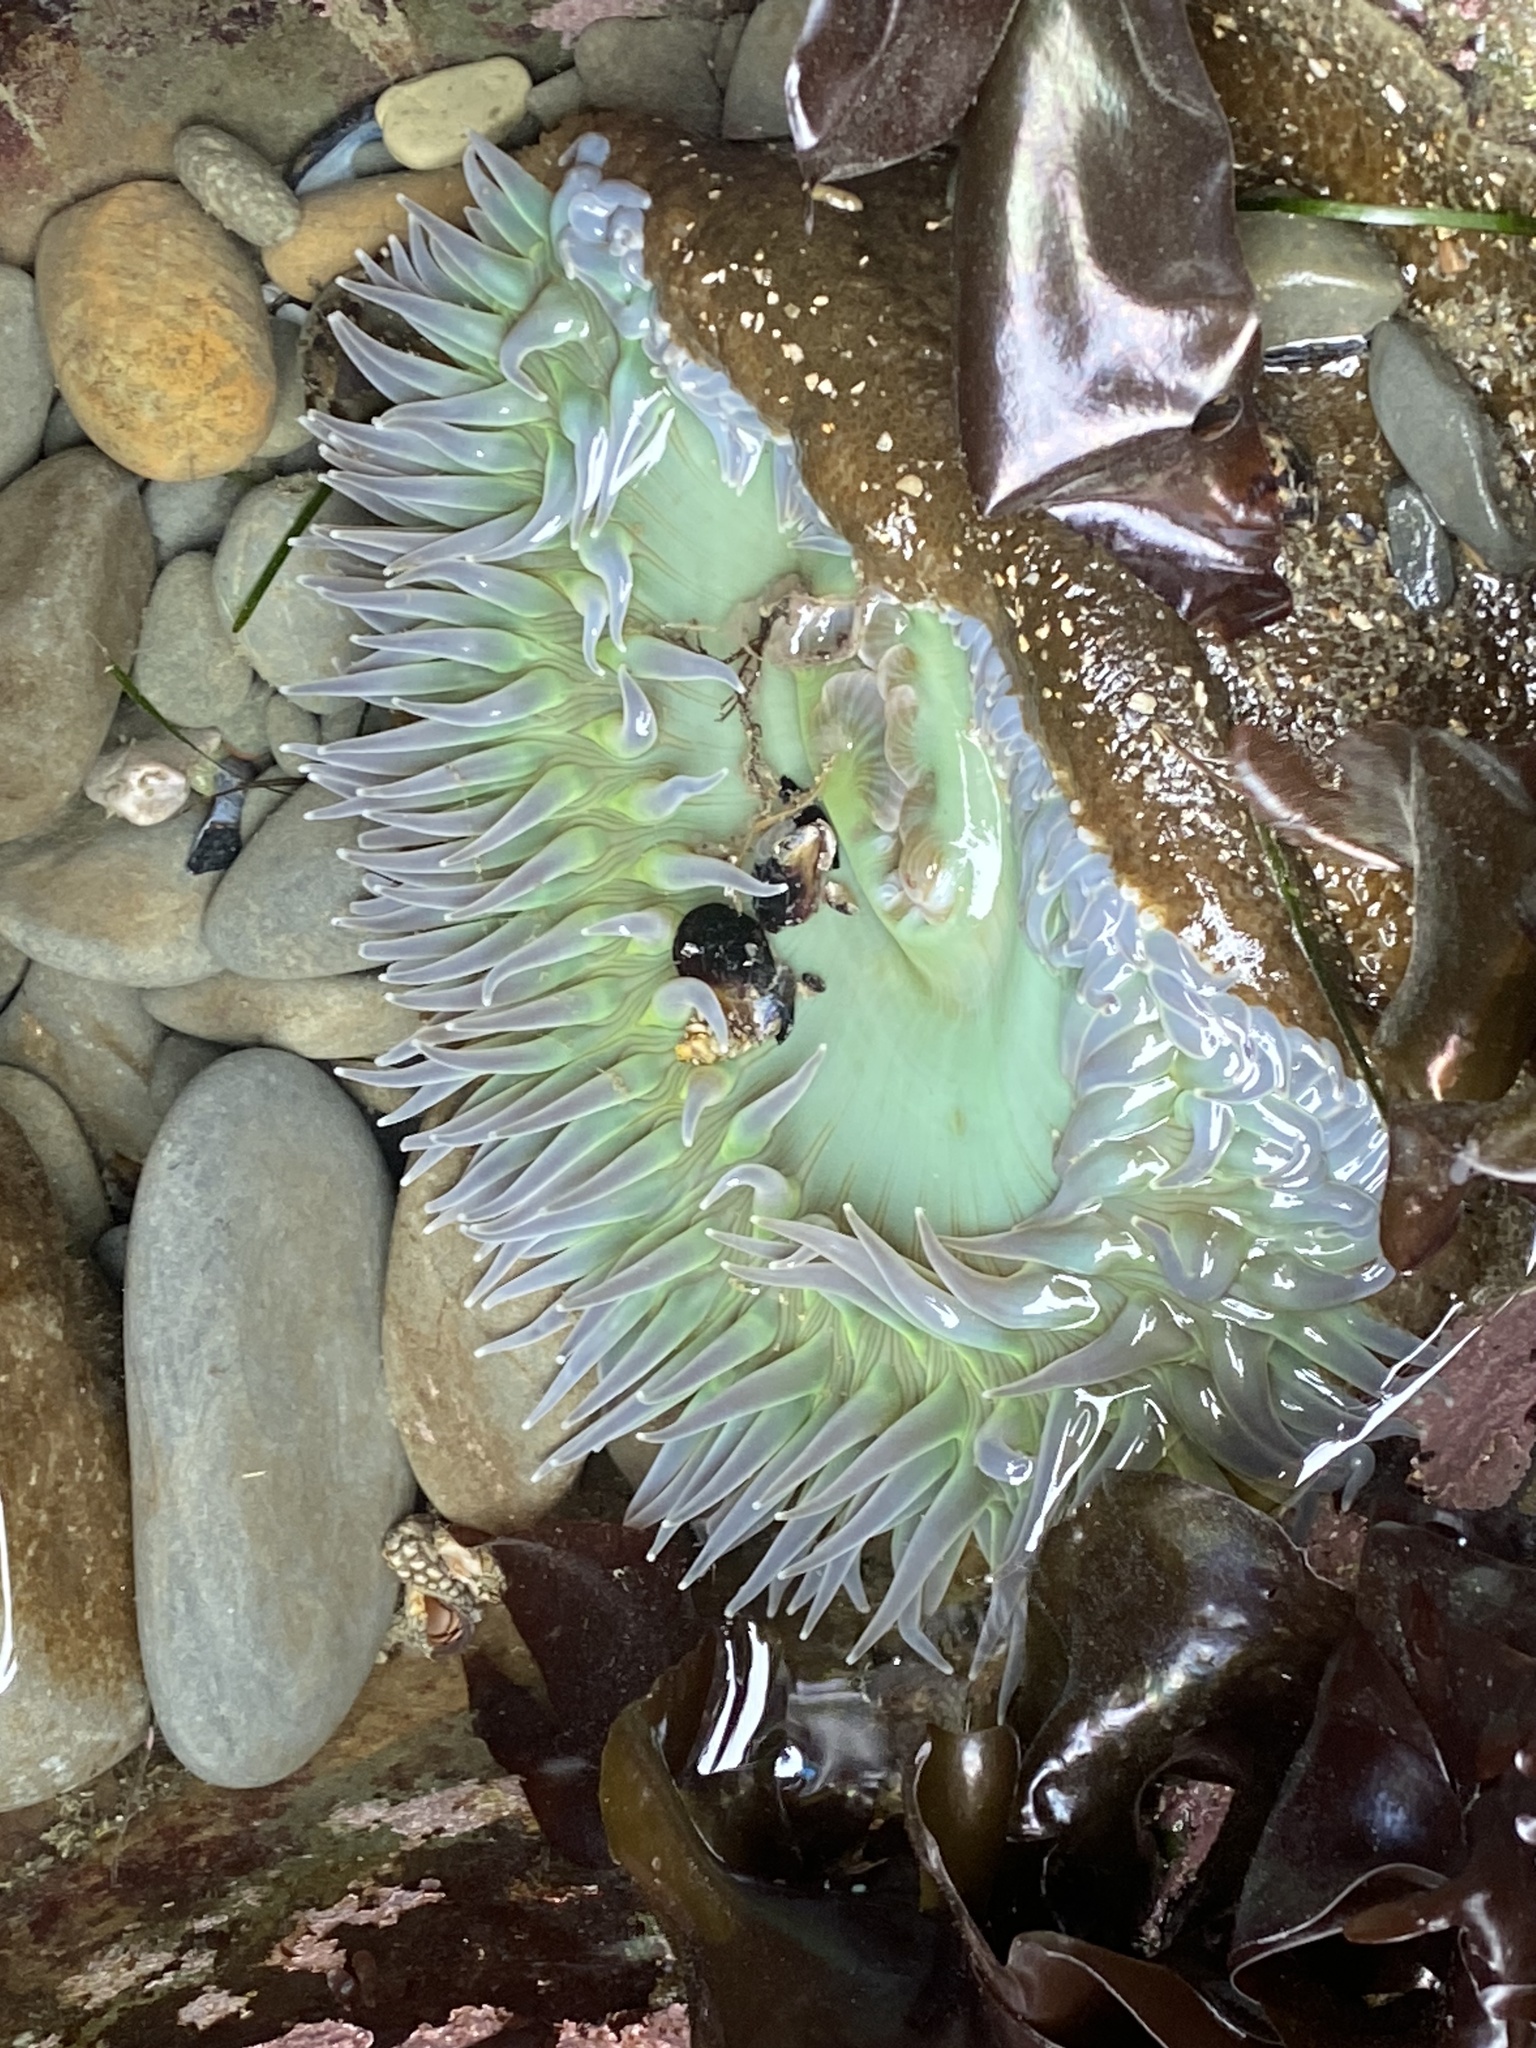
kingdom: Animalia
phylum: Cnidaria
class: Anthozoa
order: Actiniaria
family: Actiniidae
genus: Anthopleura
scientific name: Anthopleura xanthogrammica
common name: Giant green anemone
